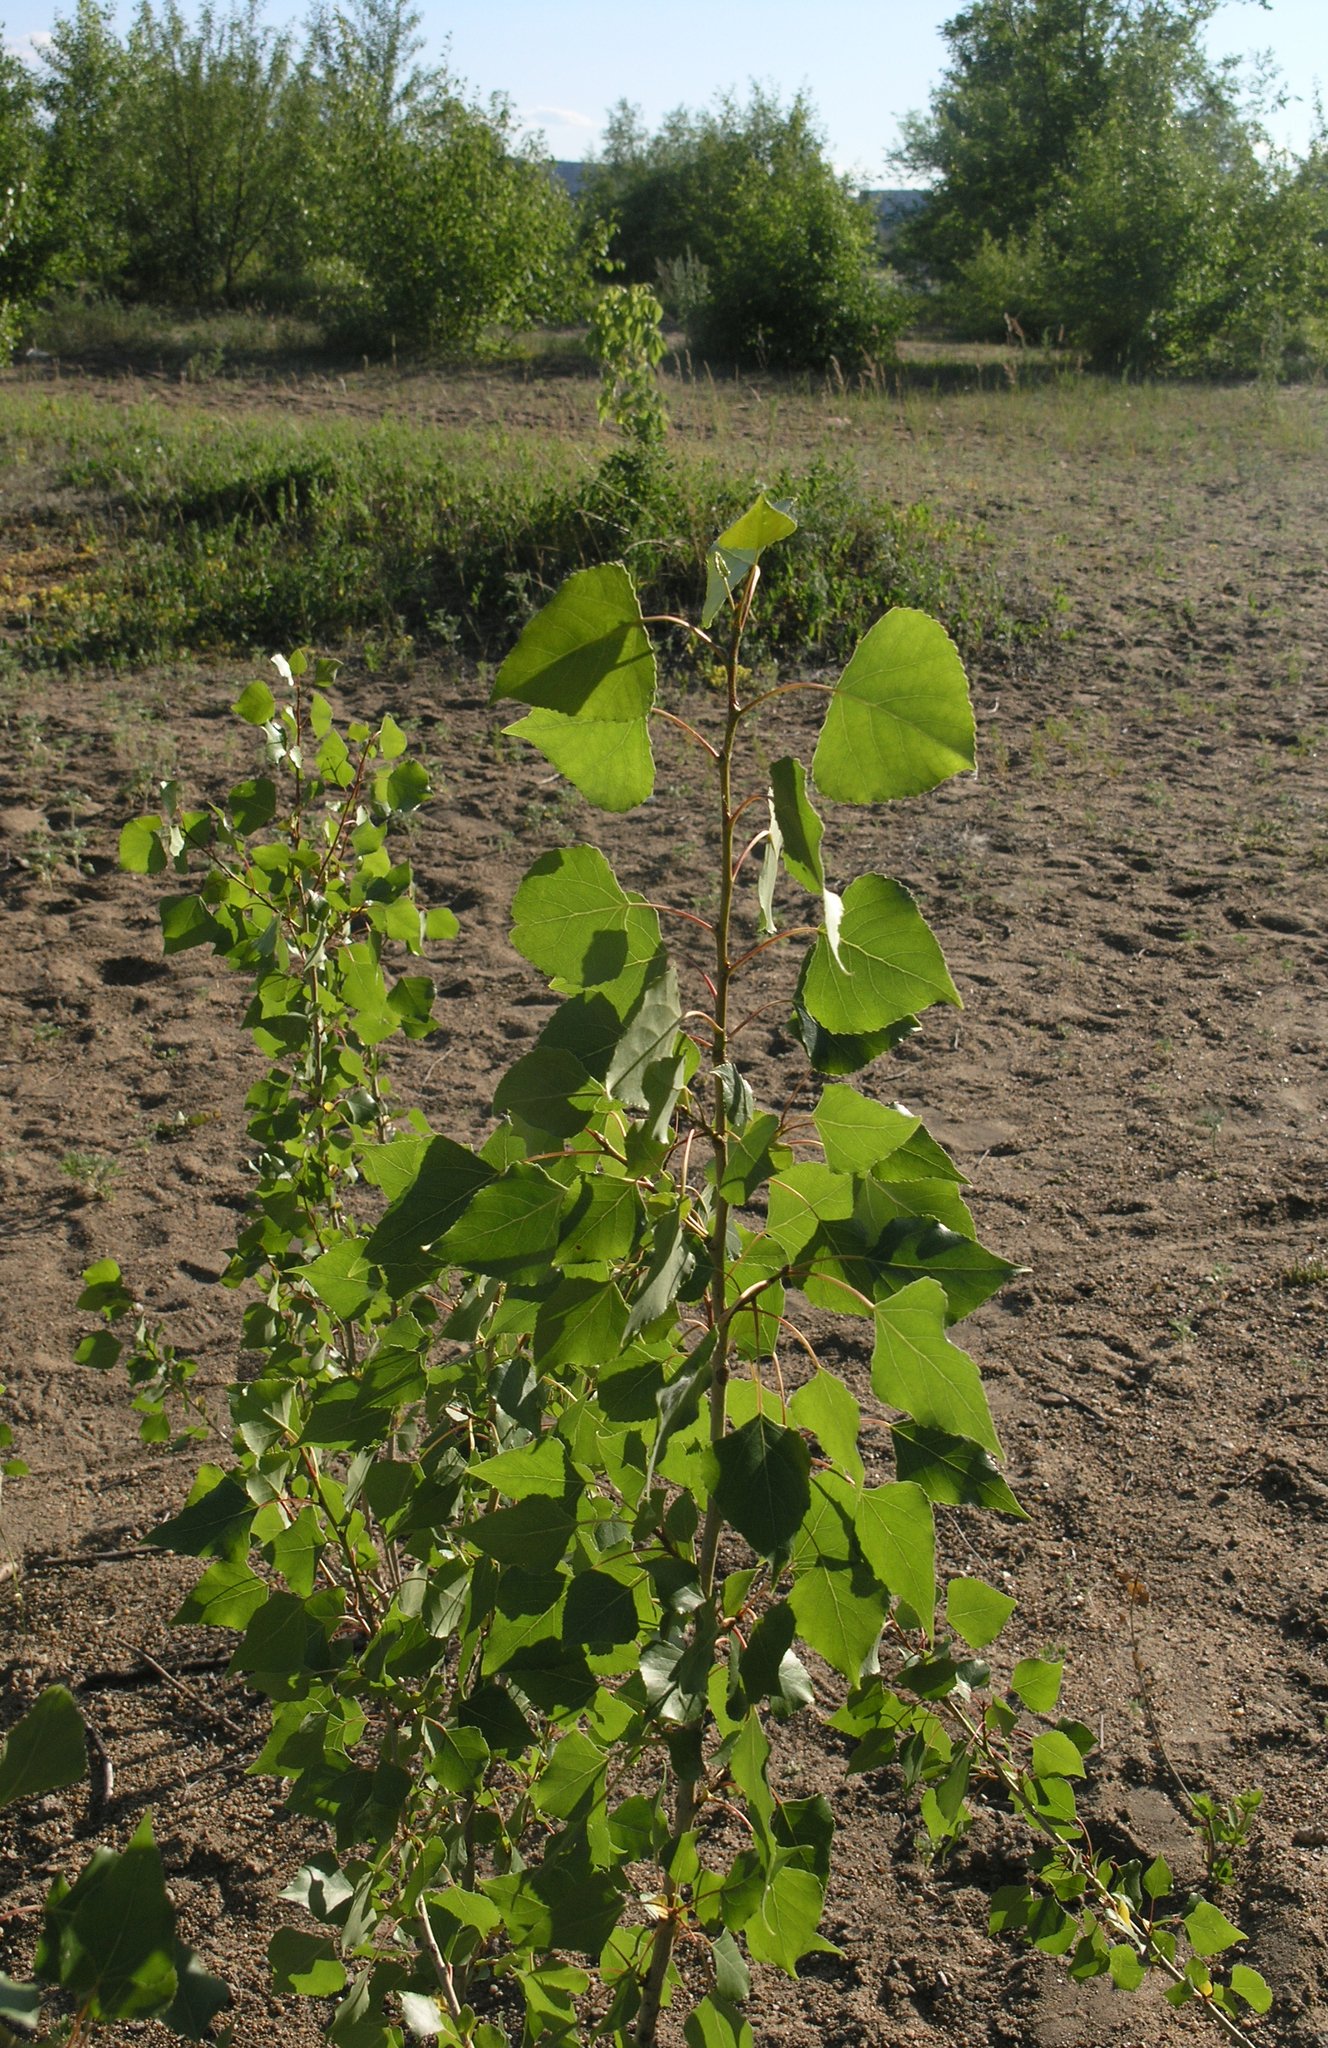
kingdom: Plantae
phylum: Tracheophyta
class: Magnoliopsida
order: Malpighiales
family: Salicaceae
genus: Populus
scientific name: Populus nigra
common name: Black poplar
